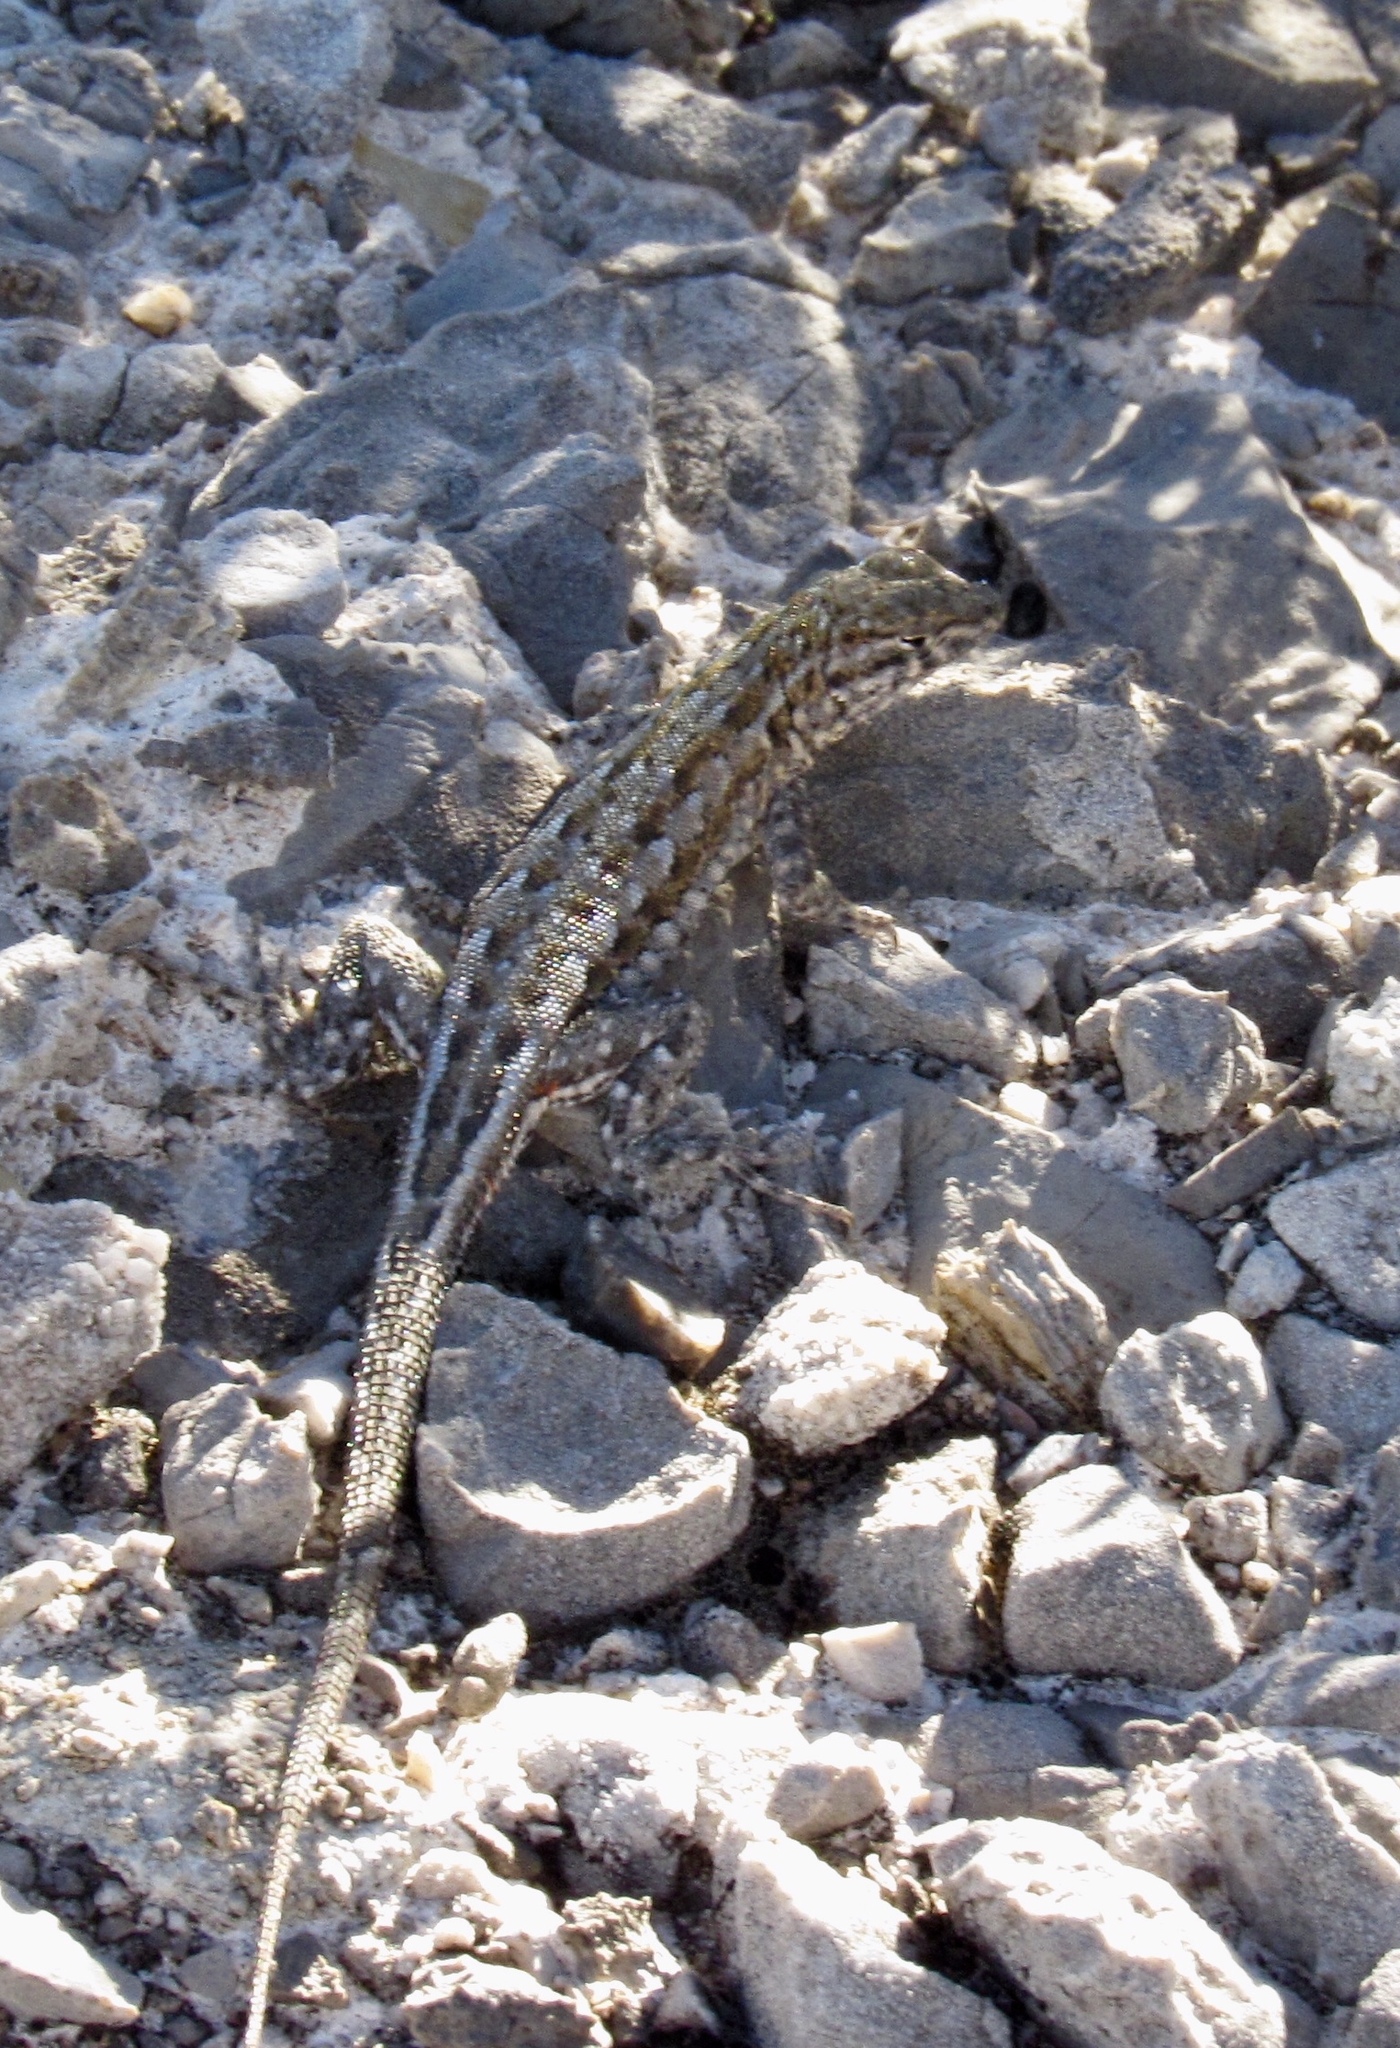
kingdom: Animalia
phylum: Chordata
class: Squamata
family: Phrynosomatidae
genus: Uta
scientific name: Uta stansburiana
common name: Side-blotched lizard
